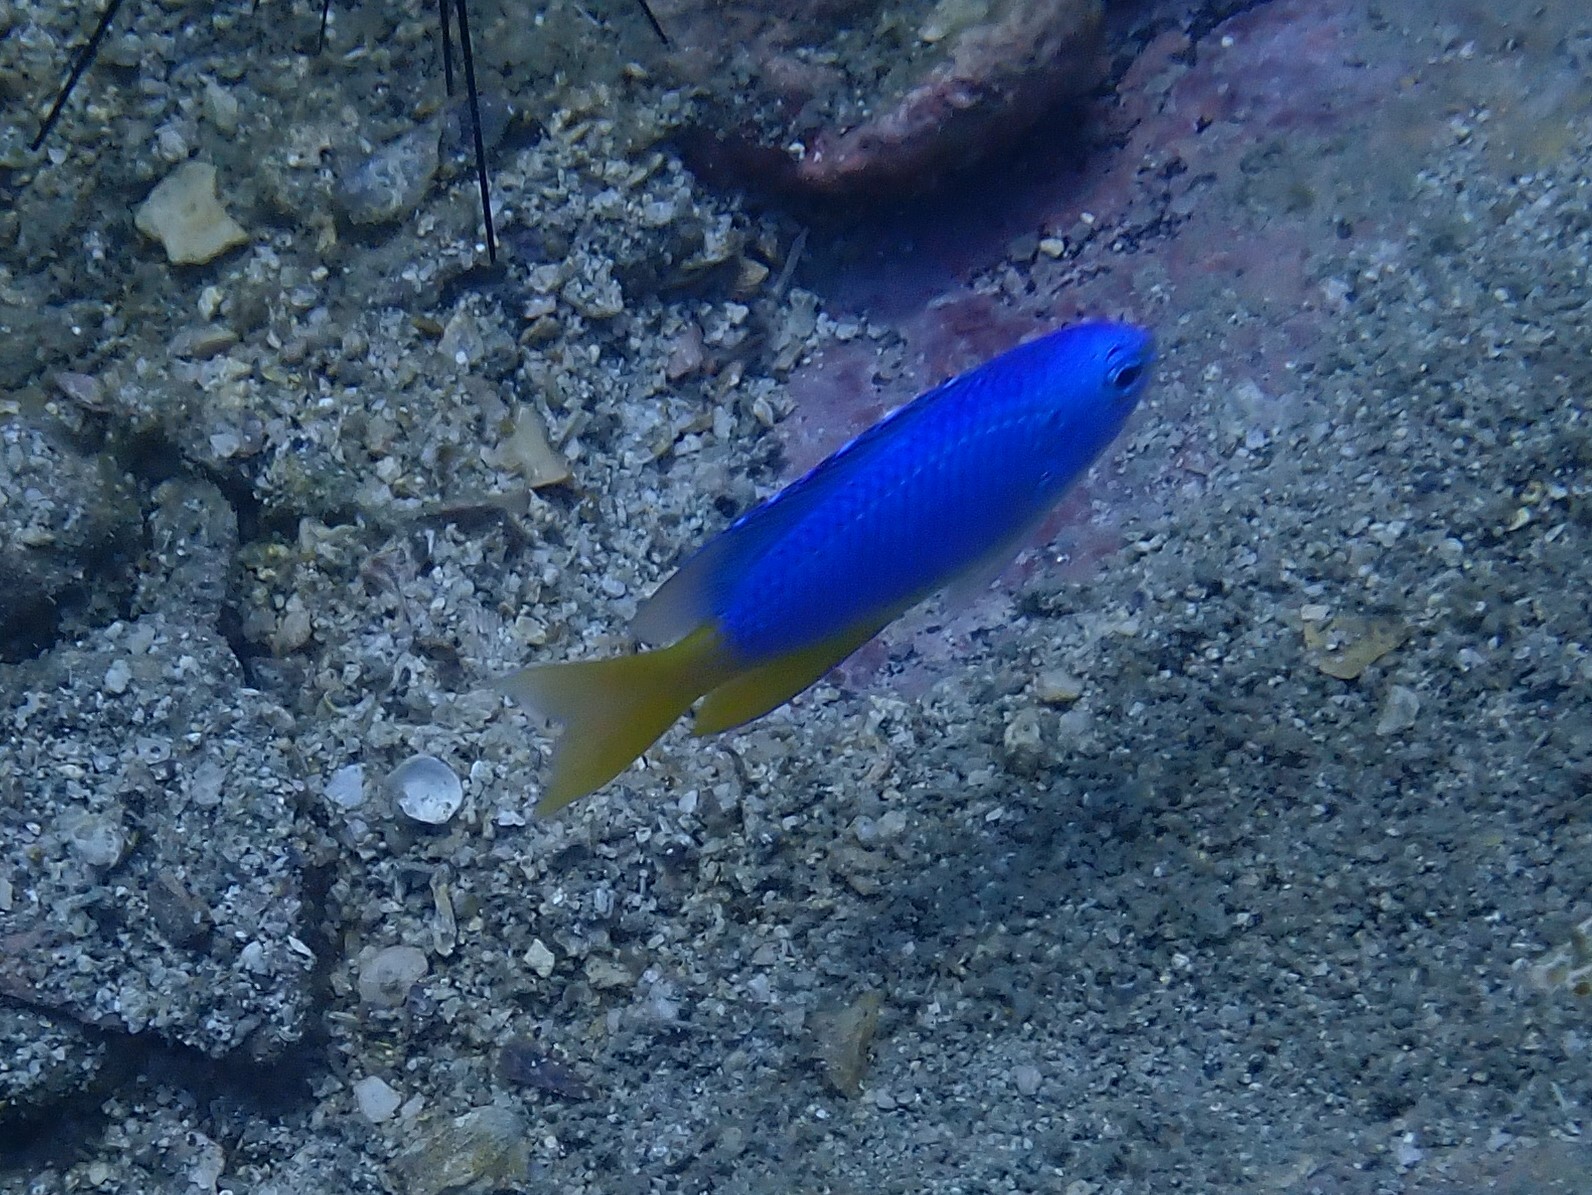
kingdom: Animalia
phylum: Chordata
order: Perciformes
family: Pomacentridae
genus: Pomacentrus
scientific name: Pomacentrus coelestis
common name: Neon damsel
